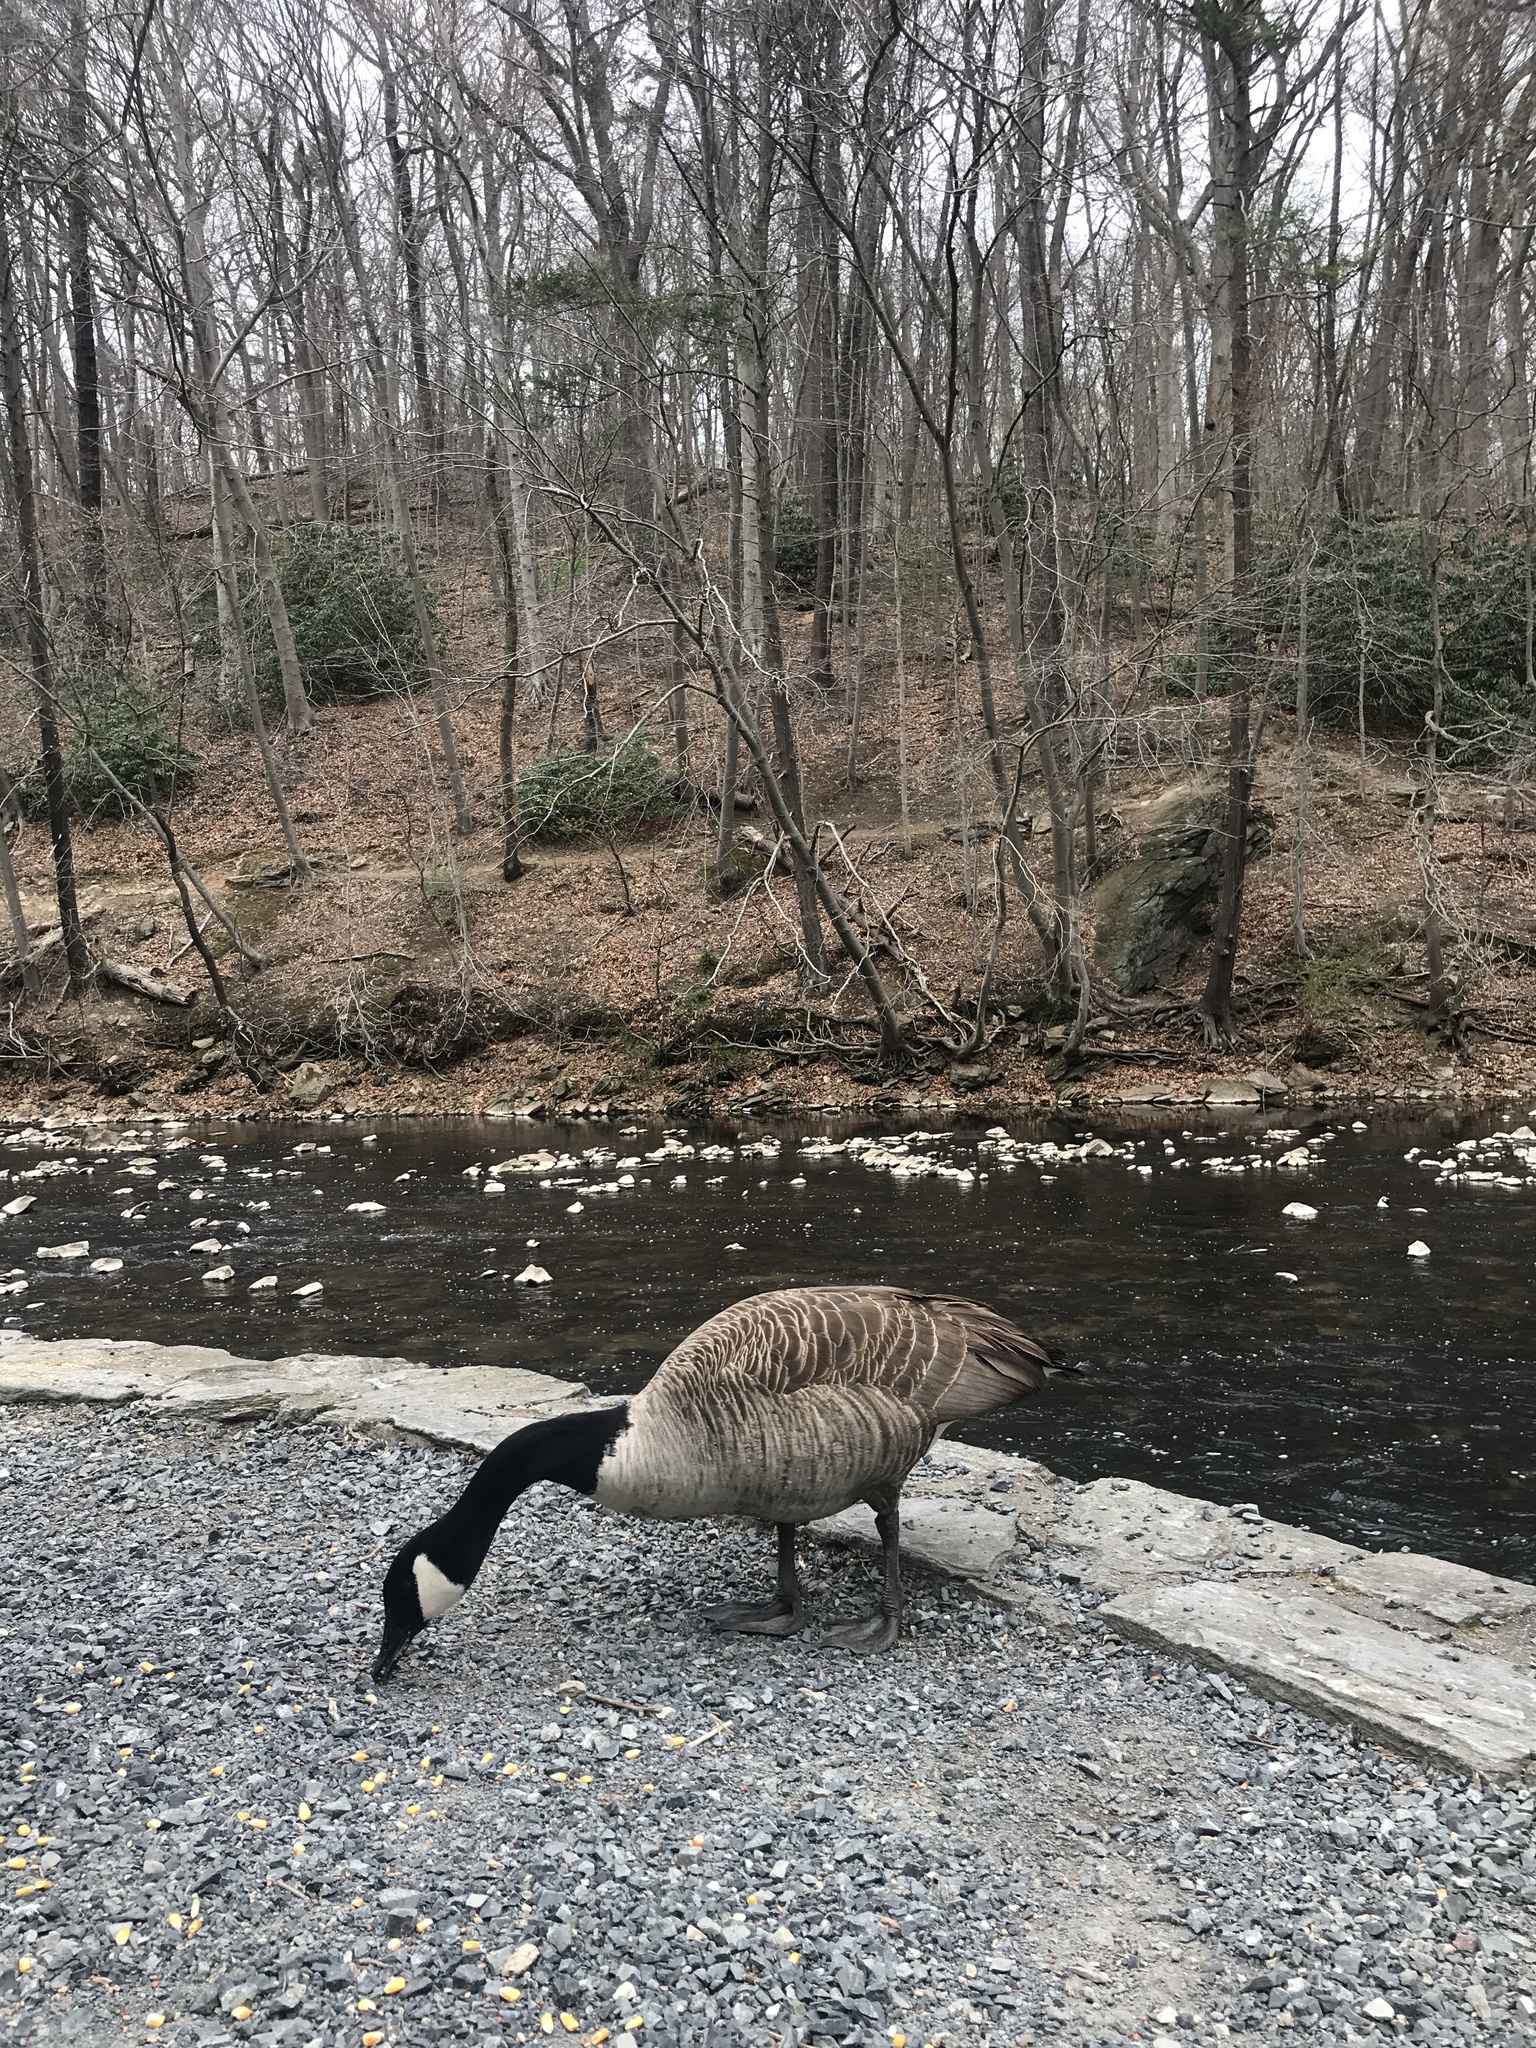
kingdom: Animalia
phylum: Chordata
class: Aves
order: Anseriformes
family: Anatidae
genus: Branta
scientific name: Branta canadensis
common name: Canada goose
